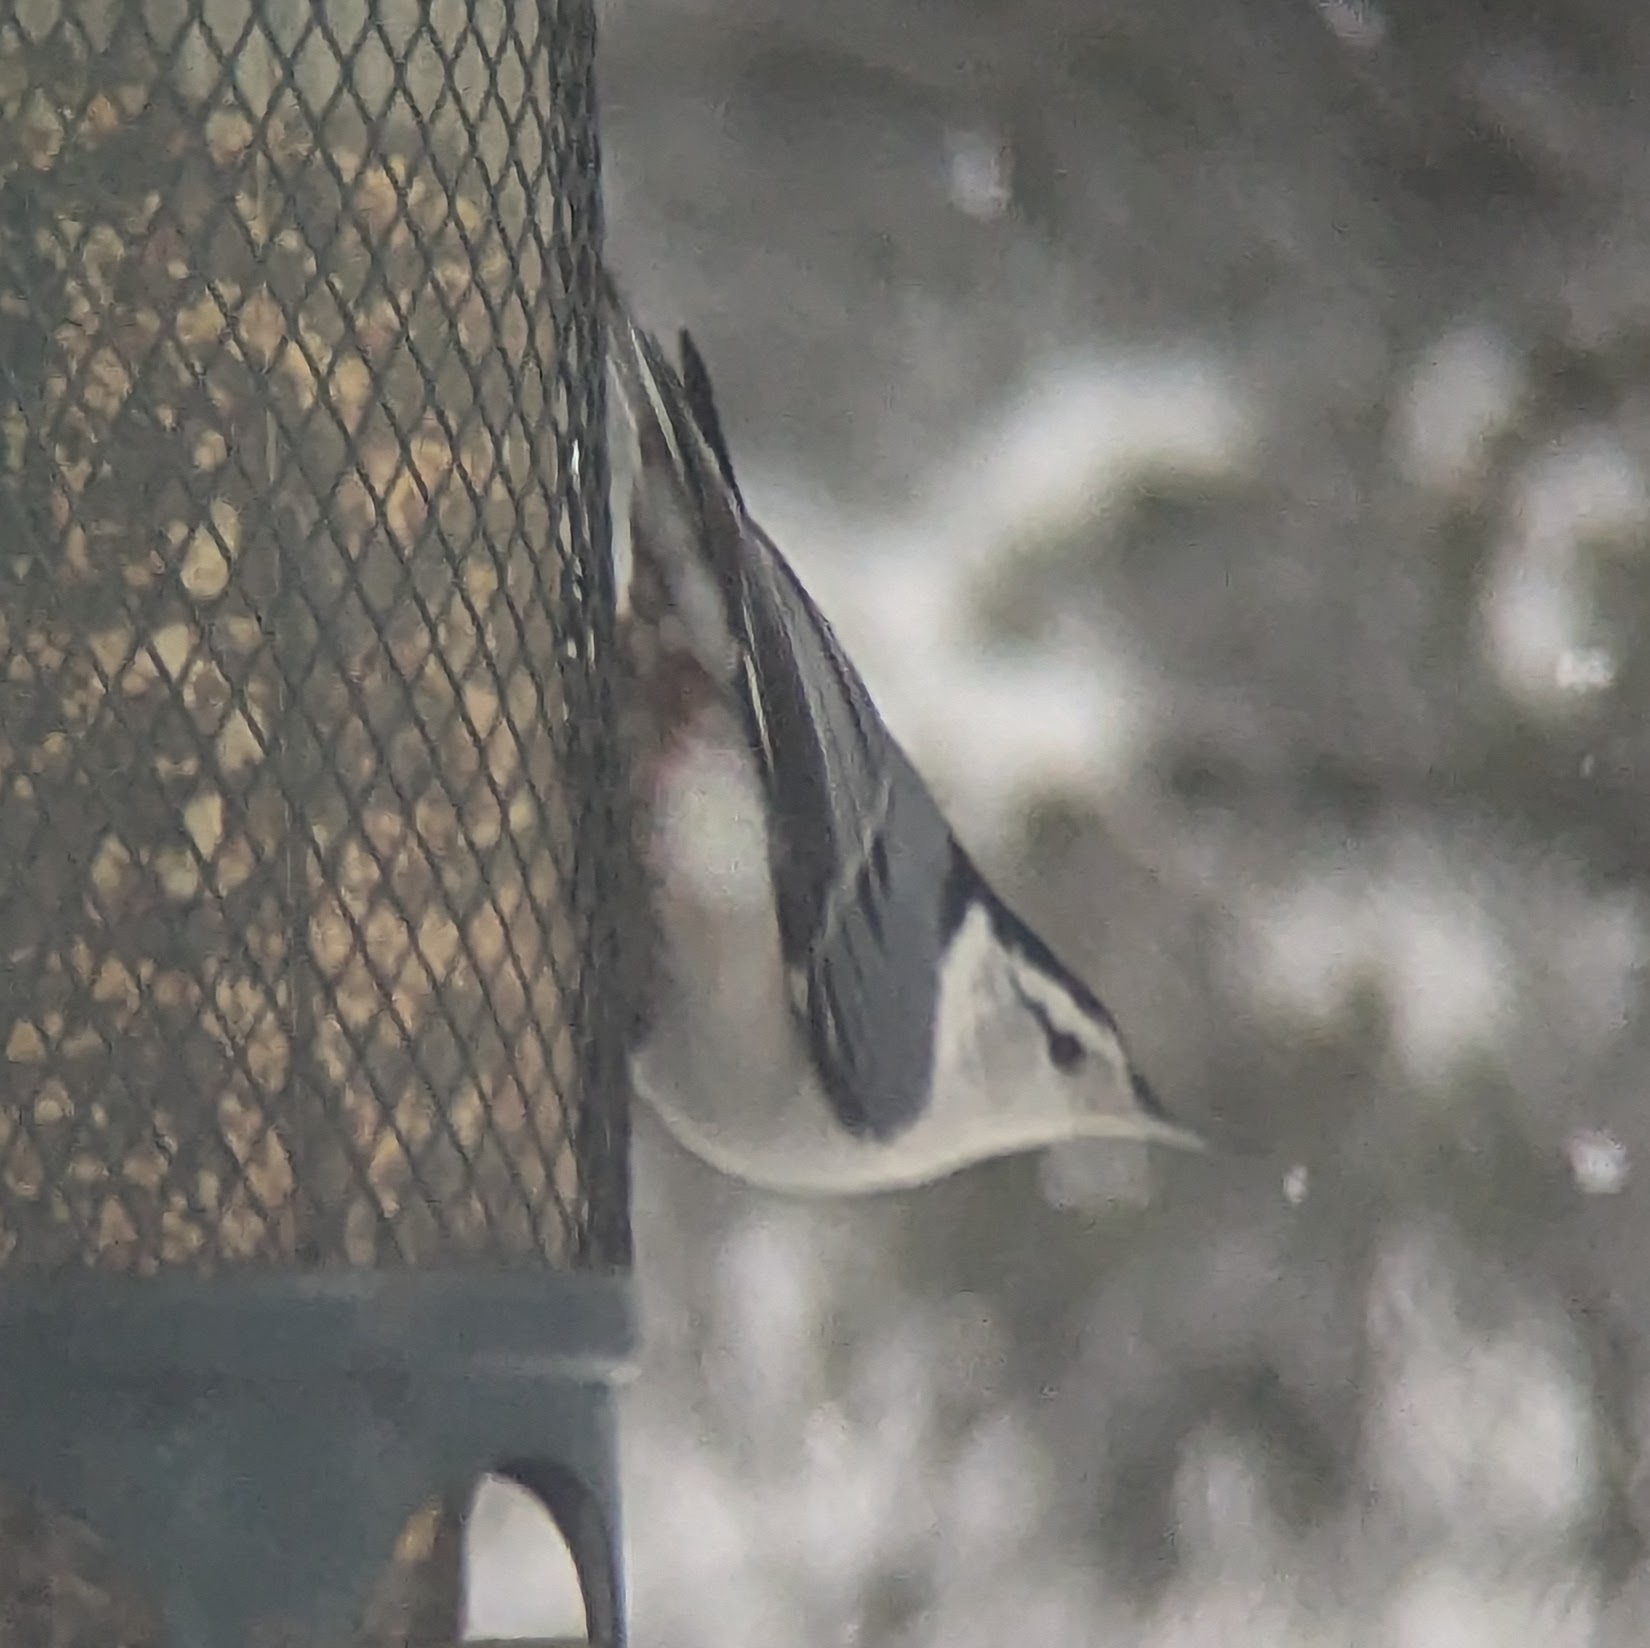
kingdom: Animalia
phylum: Chordata
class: Aves
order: Passeriformes
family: Sittidae
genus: Sitta
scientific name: Sitta carolinensis
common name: White-breasted nuthatch
